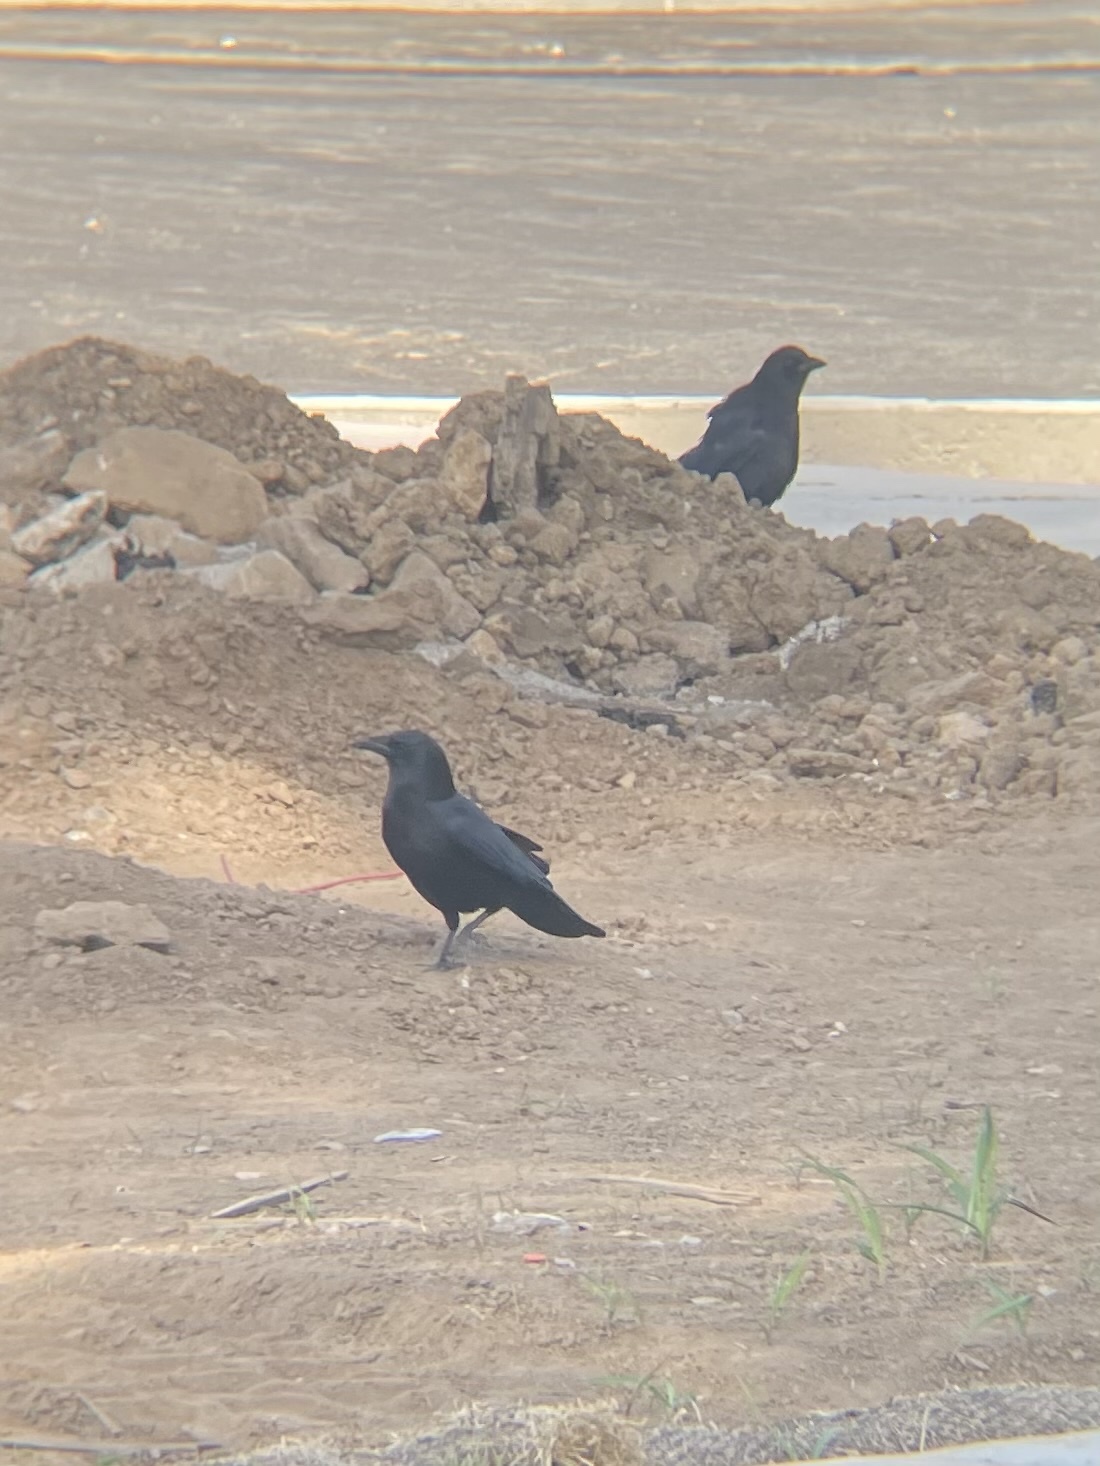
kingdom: Animalia
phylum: Chordata
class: Aves
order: Passeriformes
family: Corvidae
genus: Corvus
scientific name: Corvus brachyrhynchos
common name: American crow
